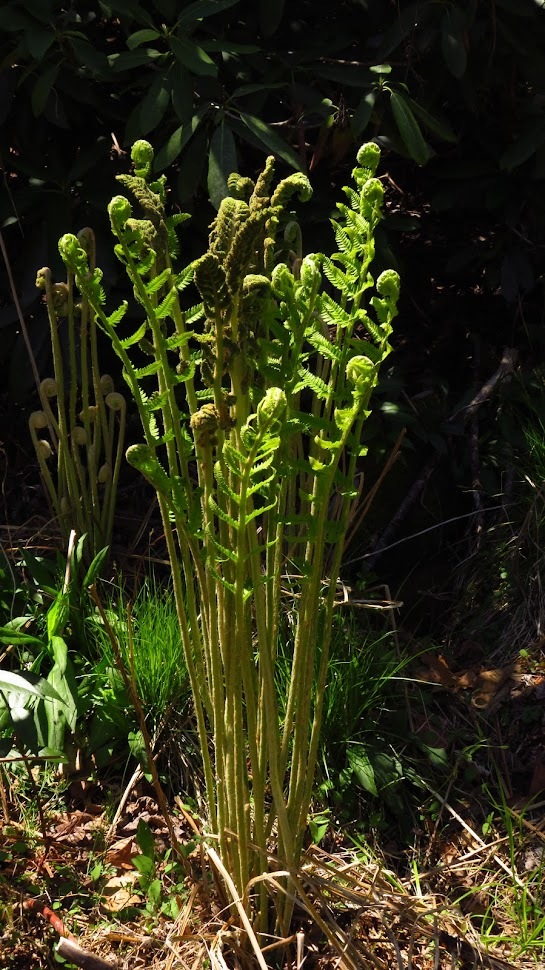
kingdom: Plantae
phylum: Tracheophyta
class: Polypodiopsida
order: Osmundales
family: Osmundaceae
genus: Osmundastrum
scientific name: Osmundastrum cinnamomeum
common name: Cinnamon fern
